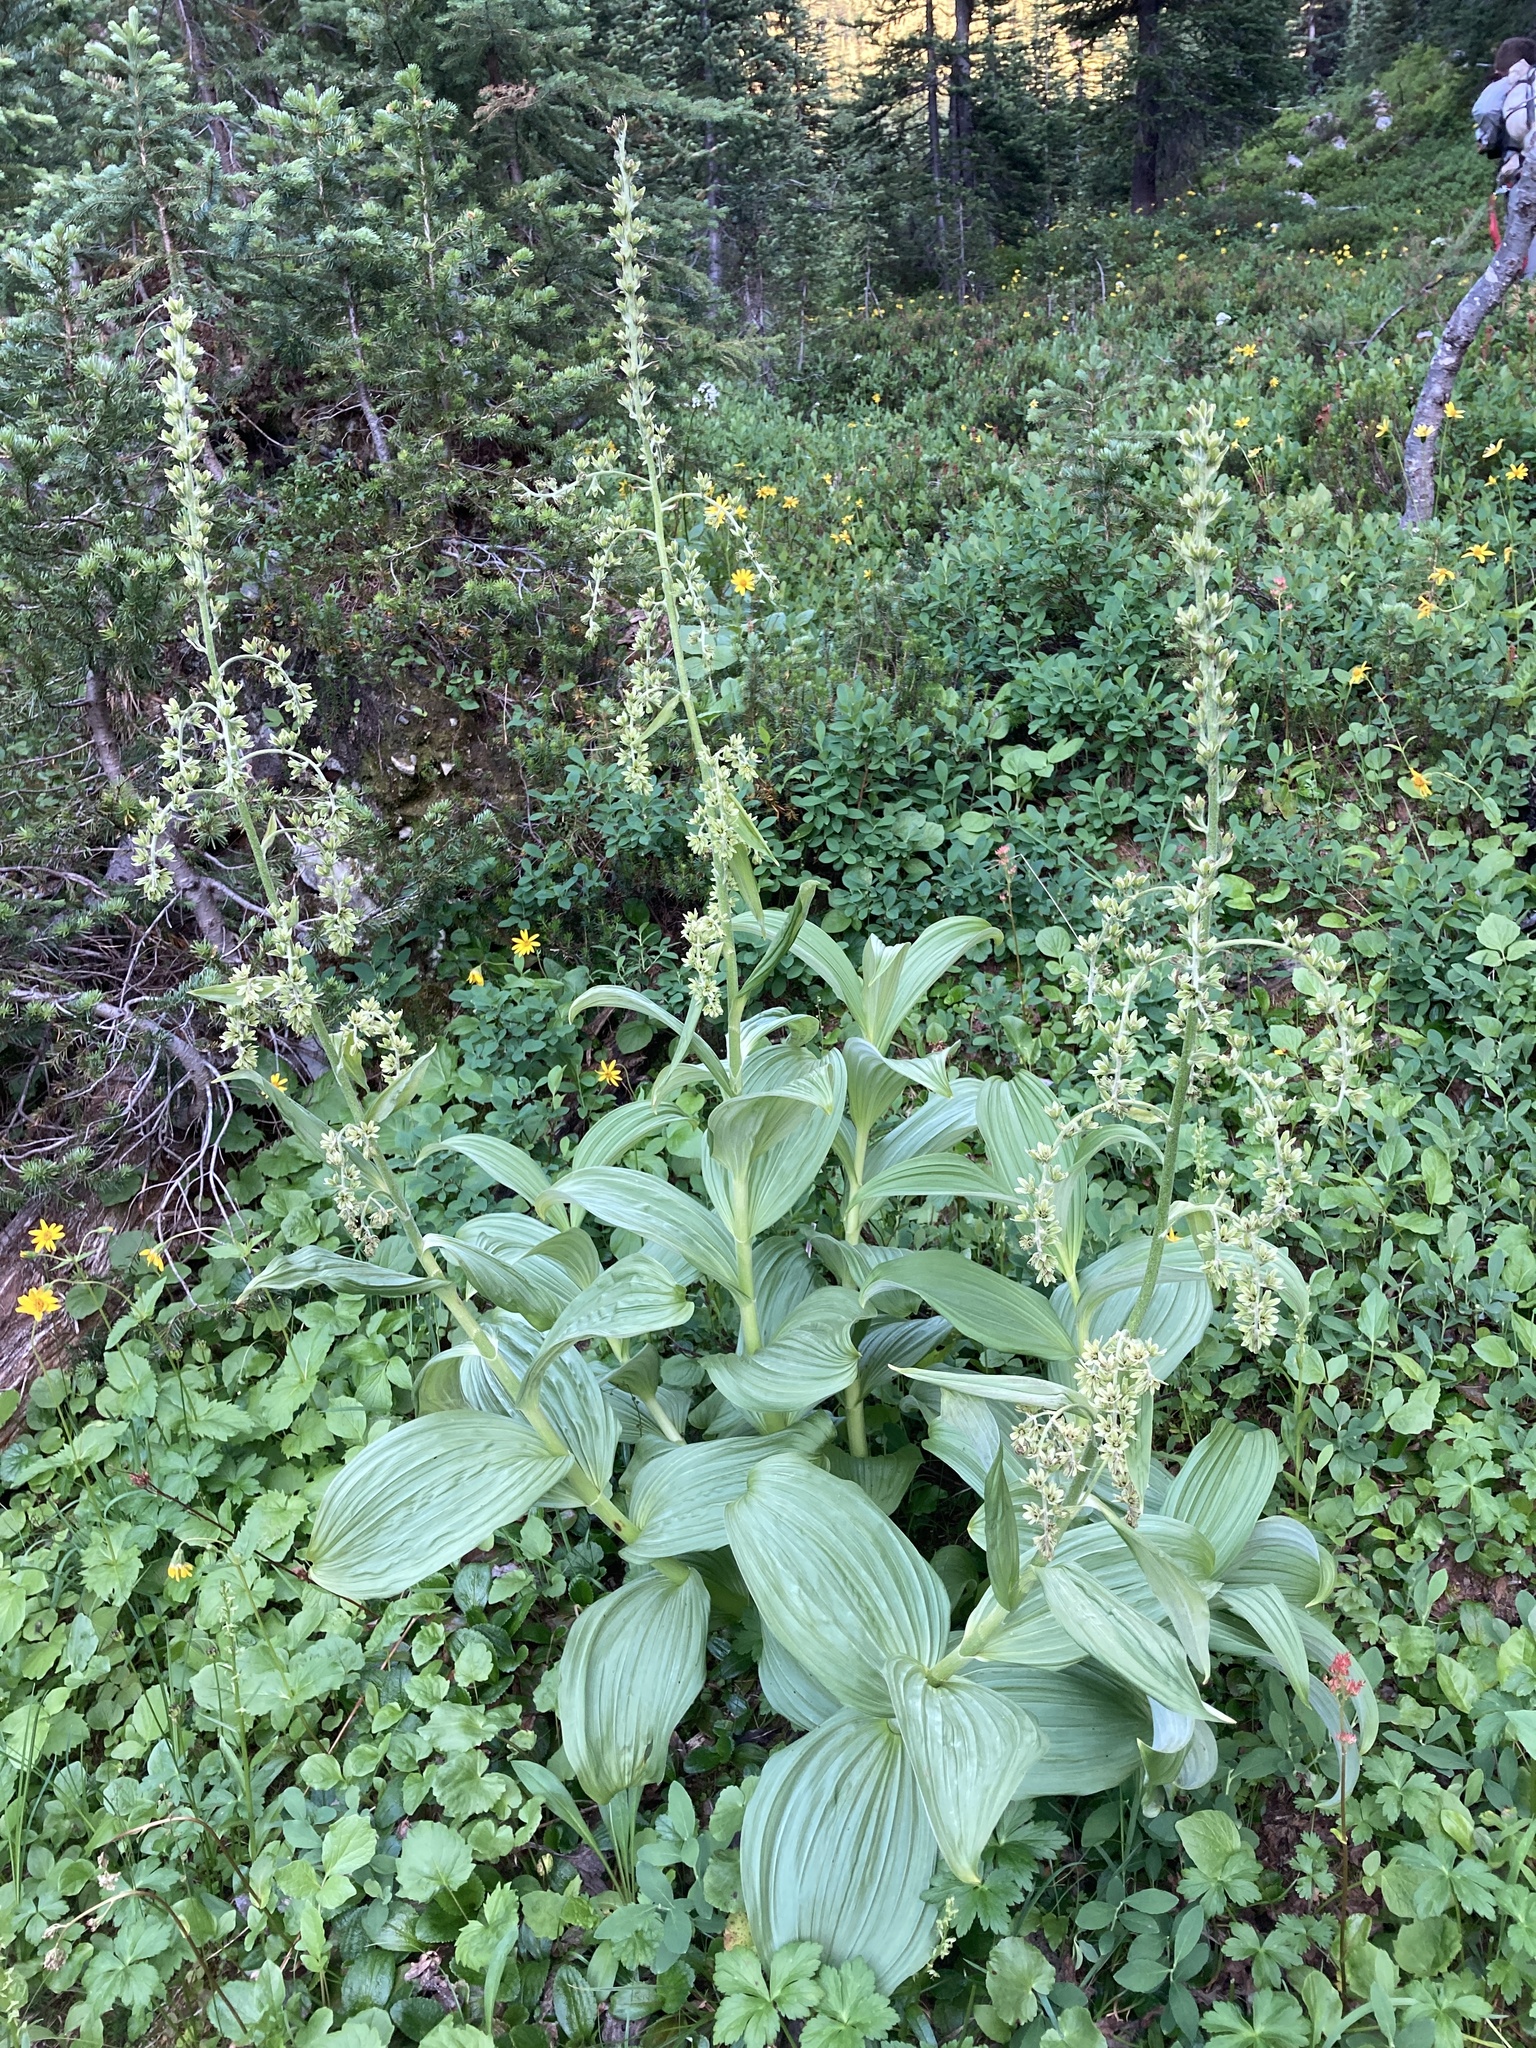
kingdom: Plantae
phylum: Tracheophyta
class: Liliopsida
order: Liliales
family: Melanthiaceae
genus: Veratrum
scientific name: Veratrum viride
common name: American false hellebore
